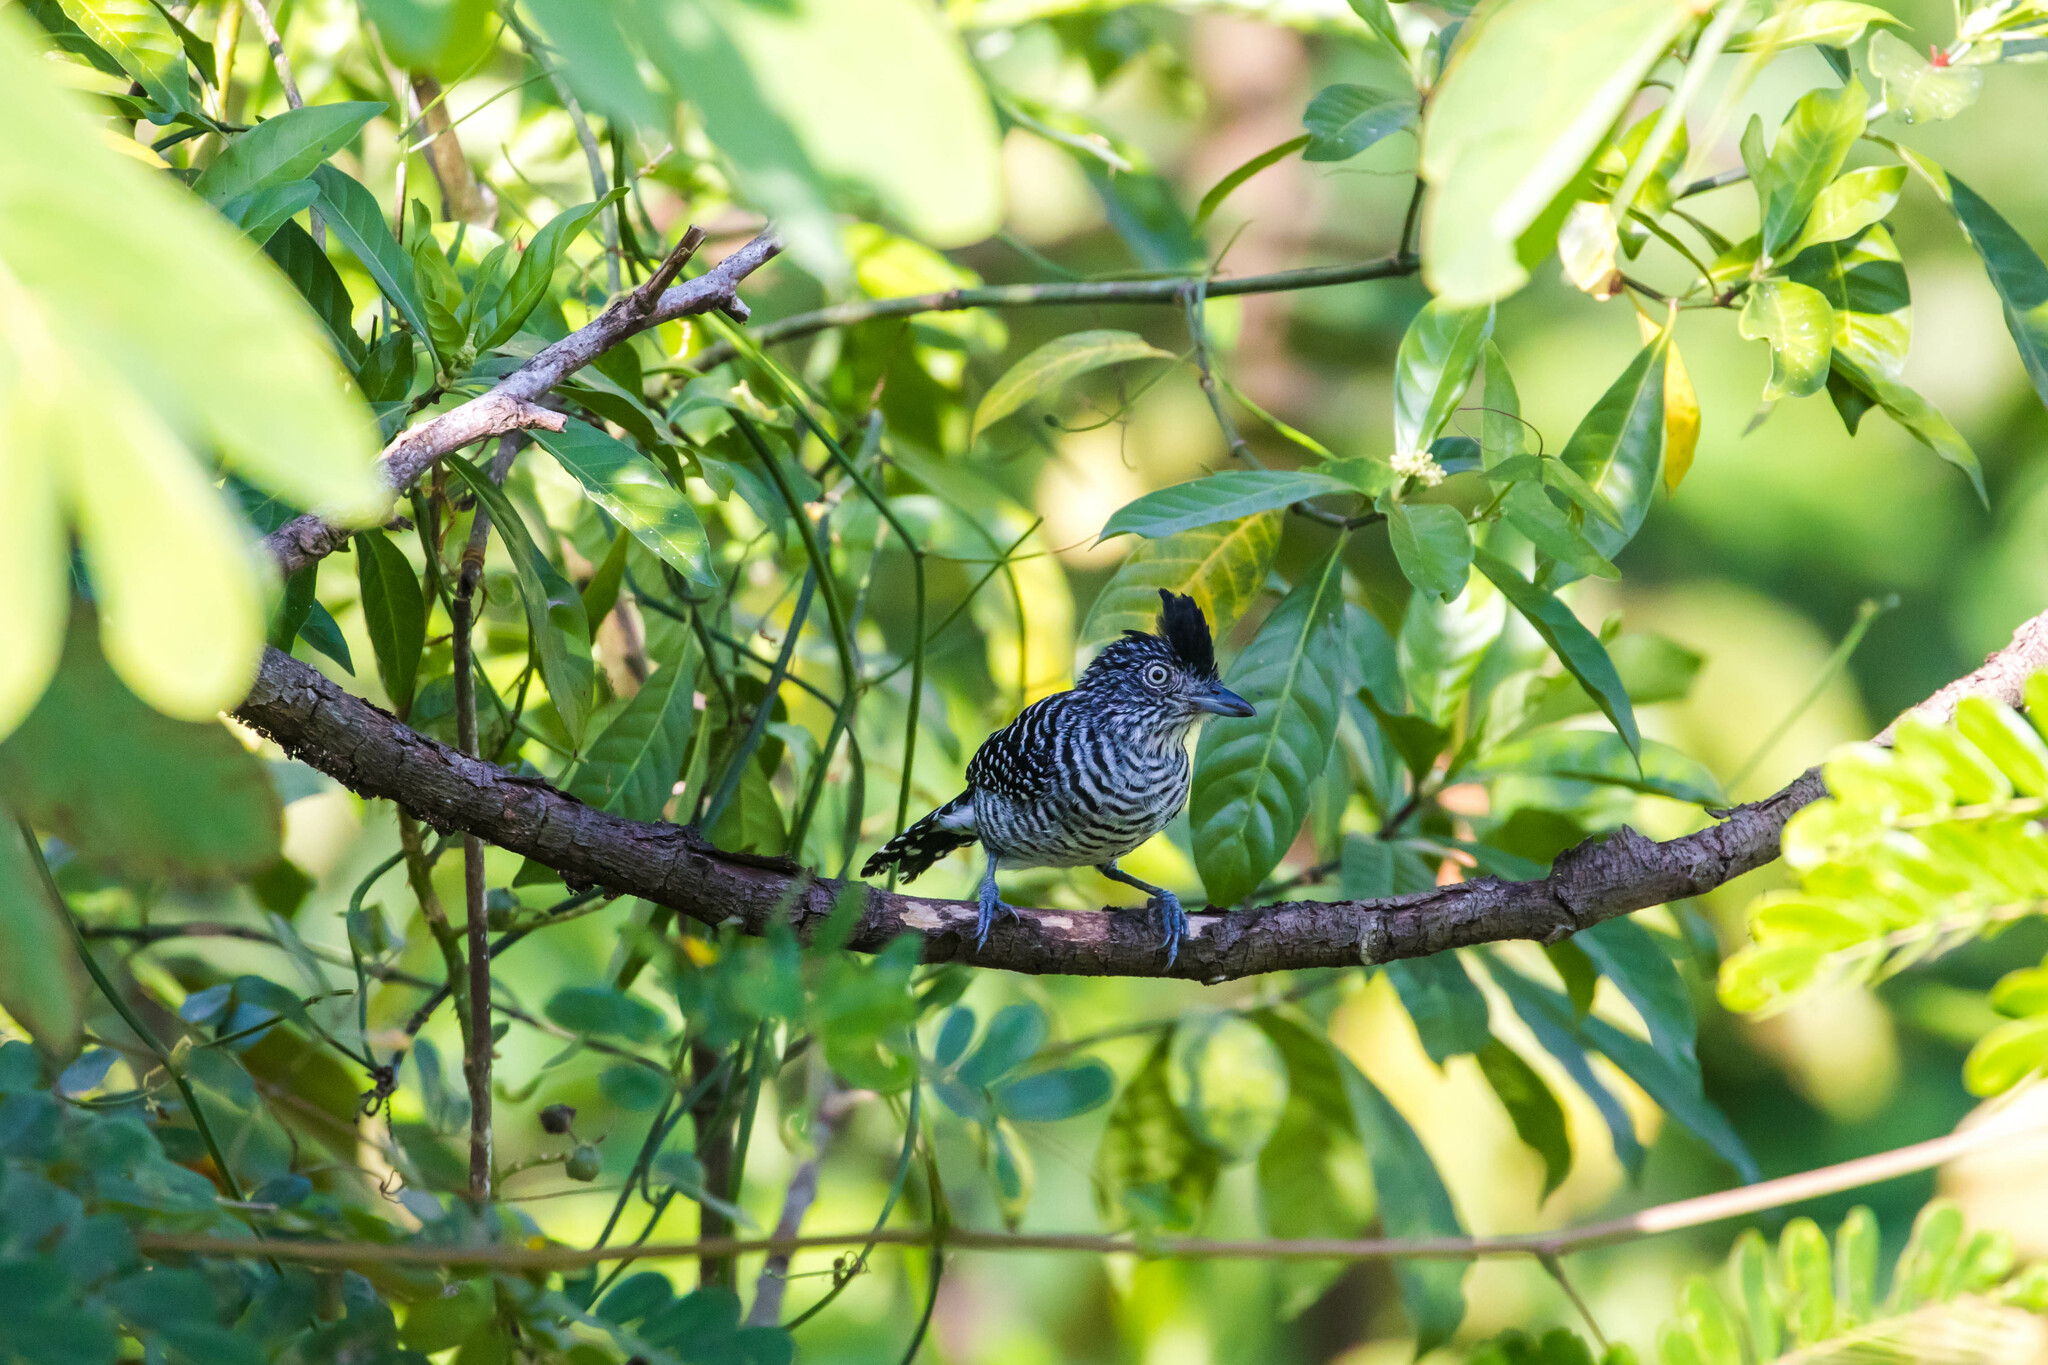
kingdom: Animalia
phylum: Chordata
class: Aves
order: Passeriformes
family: Thamnophilidae
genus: Thamnophilus
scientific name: Thamnophilus doliatus
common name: Barred antshrike
